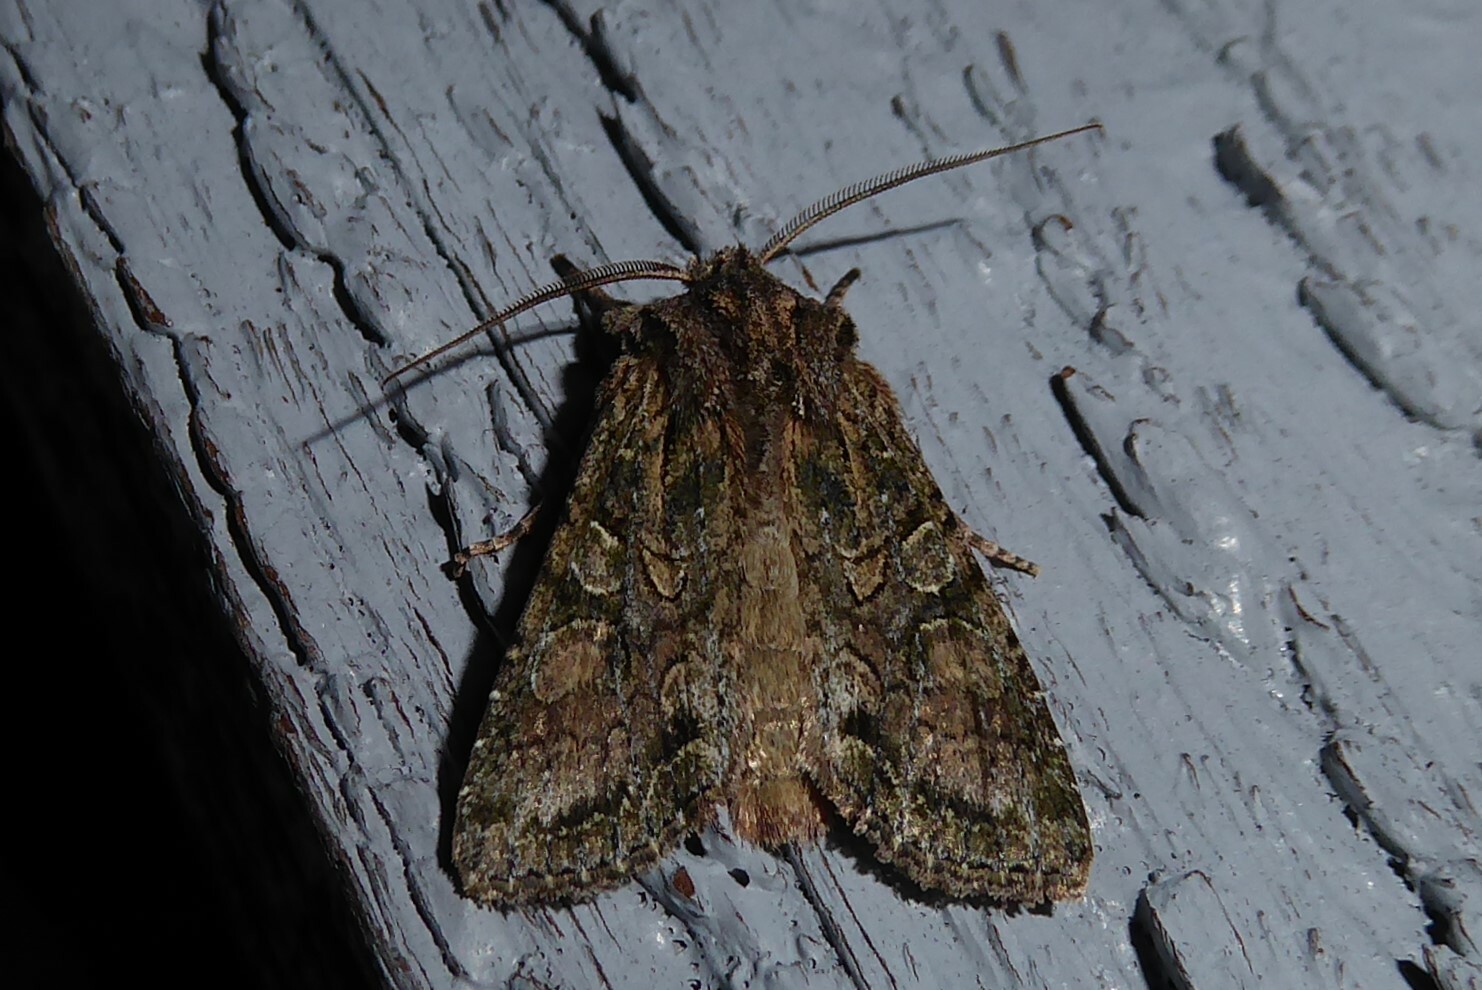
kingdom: Animalia
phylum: Arthropoda
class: Insecta
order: Lepidoptera
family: Noctuidae
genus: Ichneutica
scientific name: Ichneutica mutans
